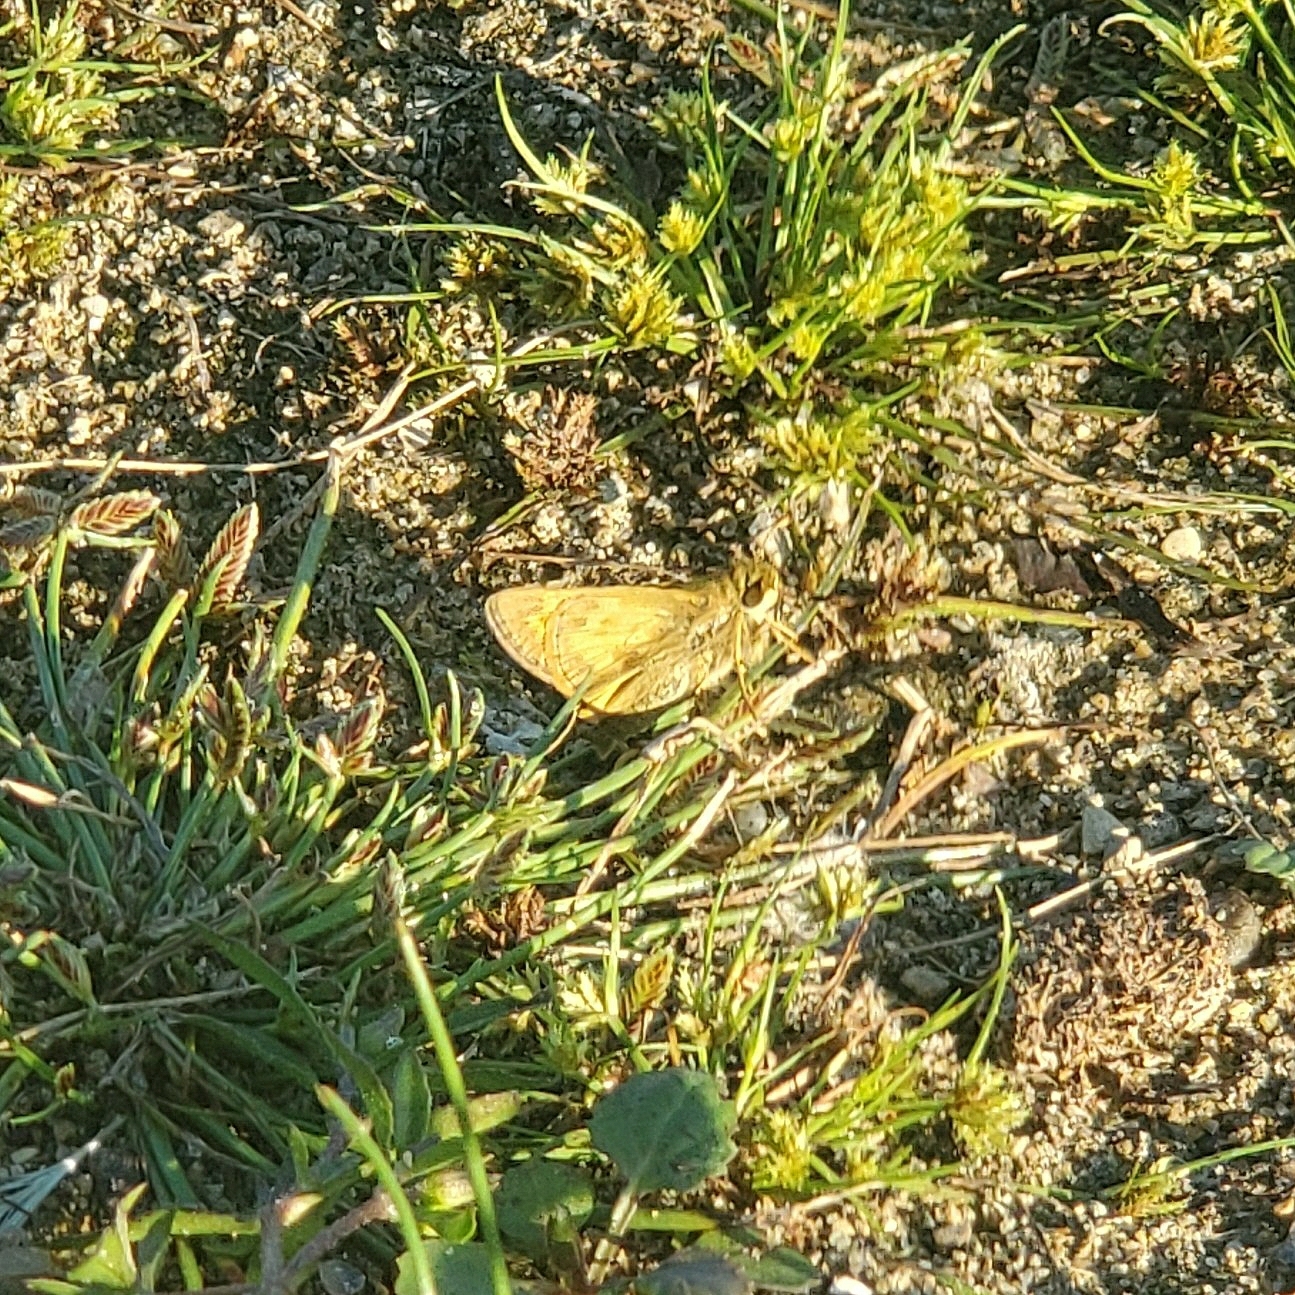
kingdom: Animalia
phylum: Arthropoda
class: Insecta
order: Lepidoptera
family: Hesperiidae
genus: Atalopedes
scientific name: Atalopedes
